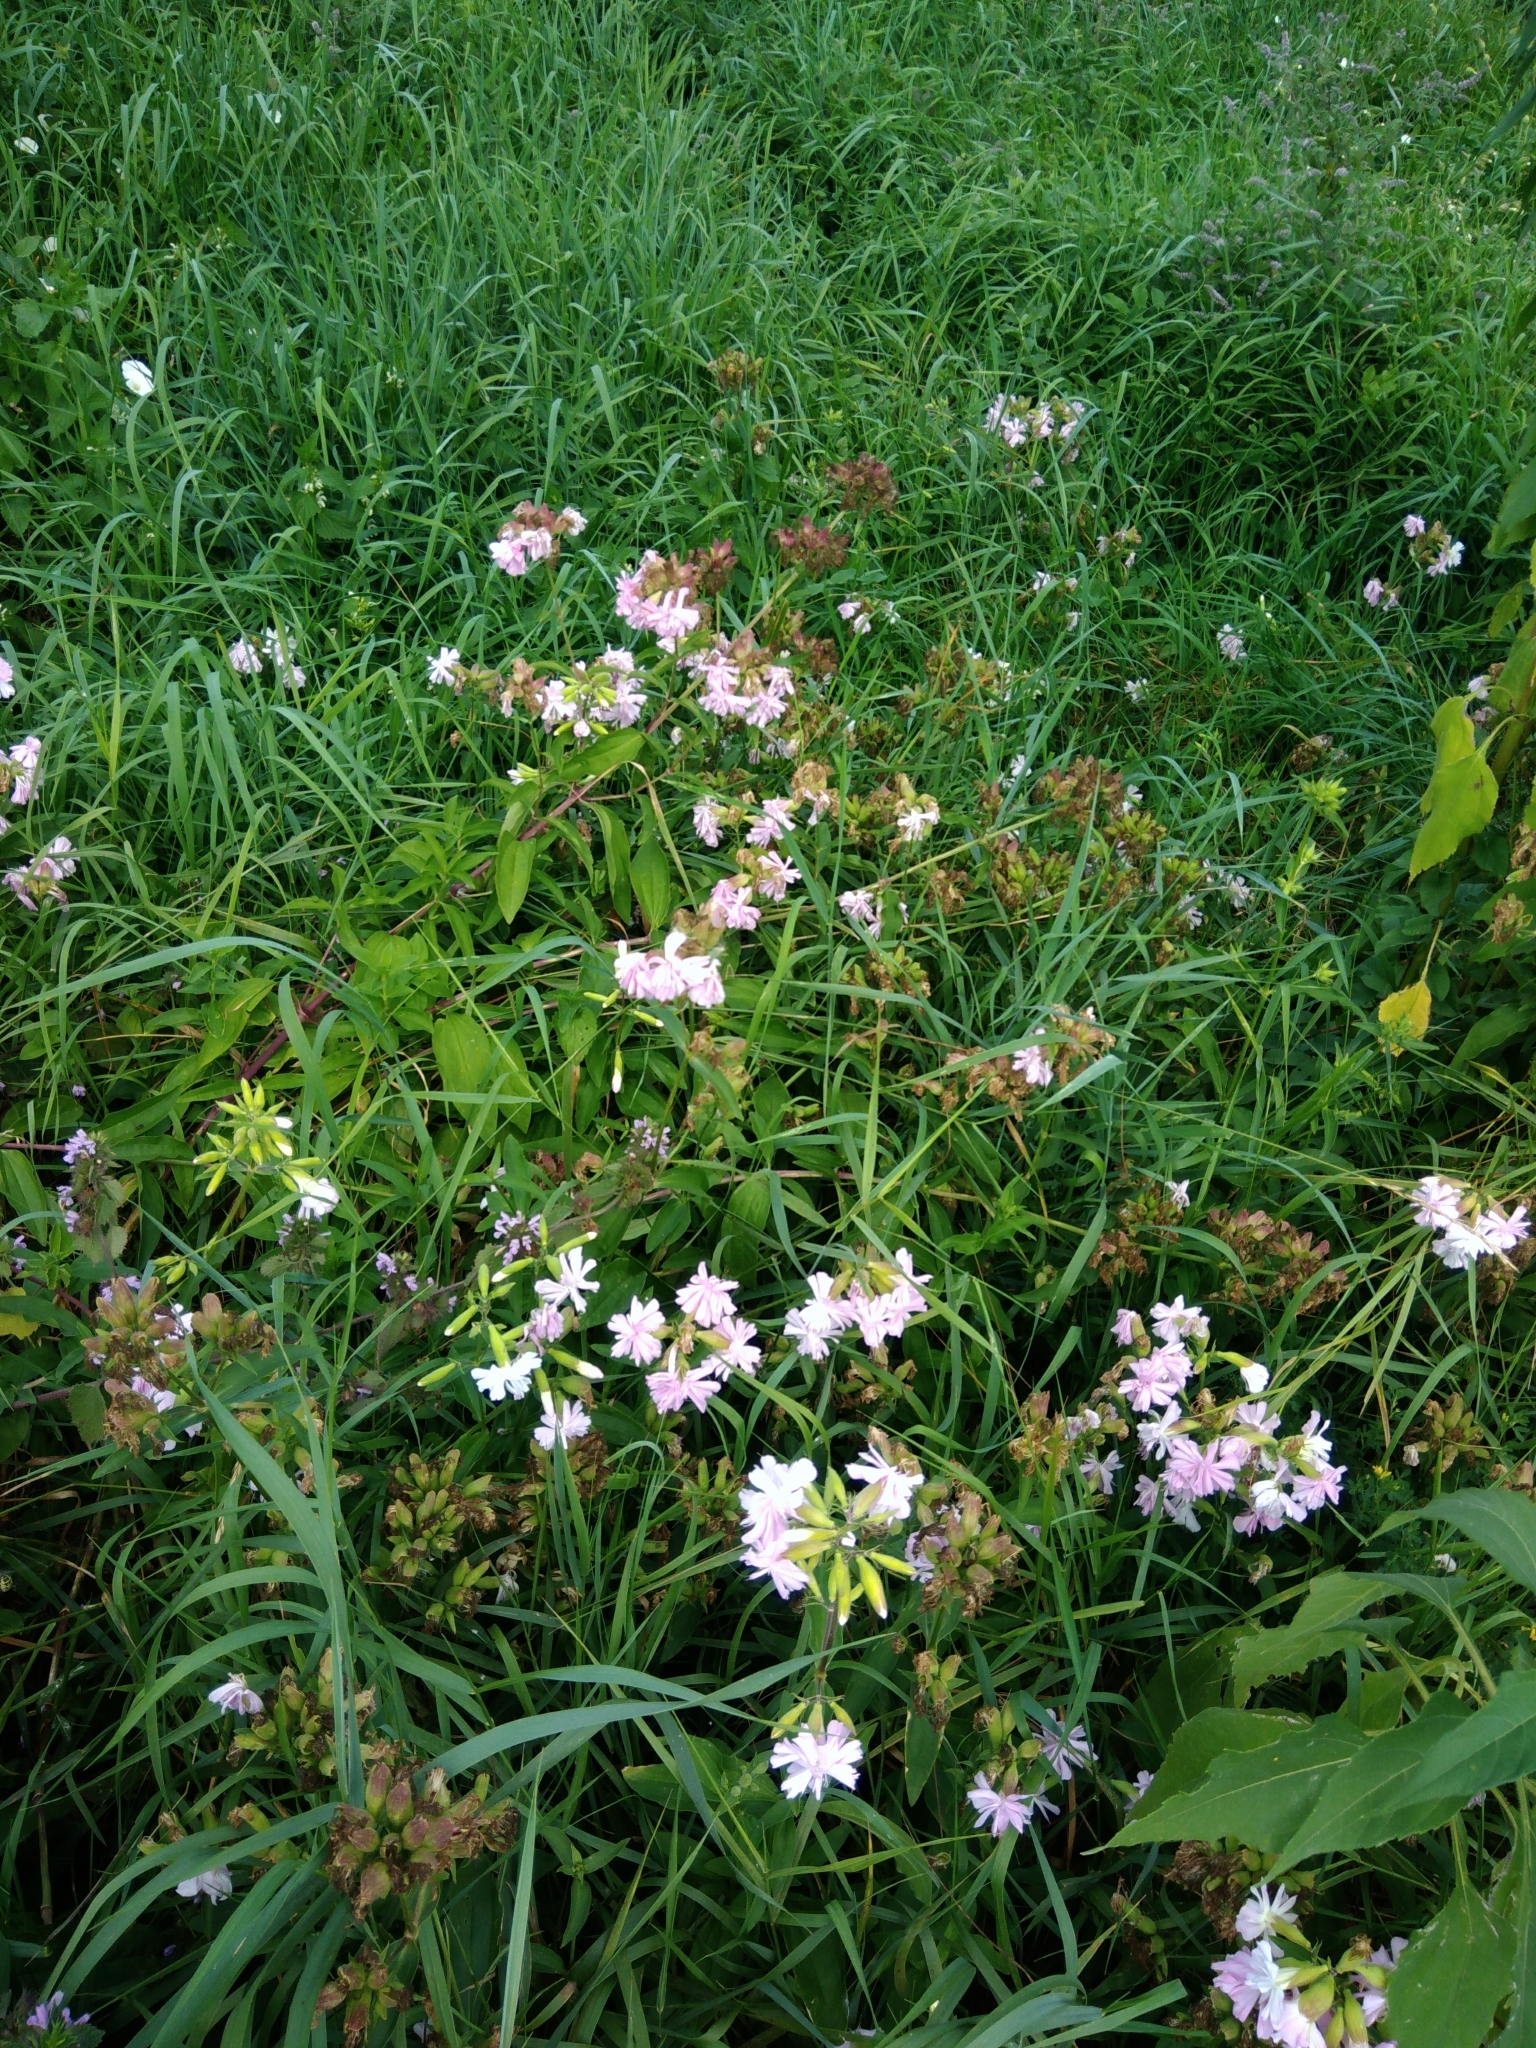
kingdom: Plantae
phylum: Tracheophyta
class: Magnoliopsida
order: Caryophyllales
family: Caryophyllaceae
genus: Saponaria
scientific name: Saponaria officinalis
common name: Soapwort
